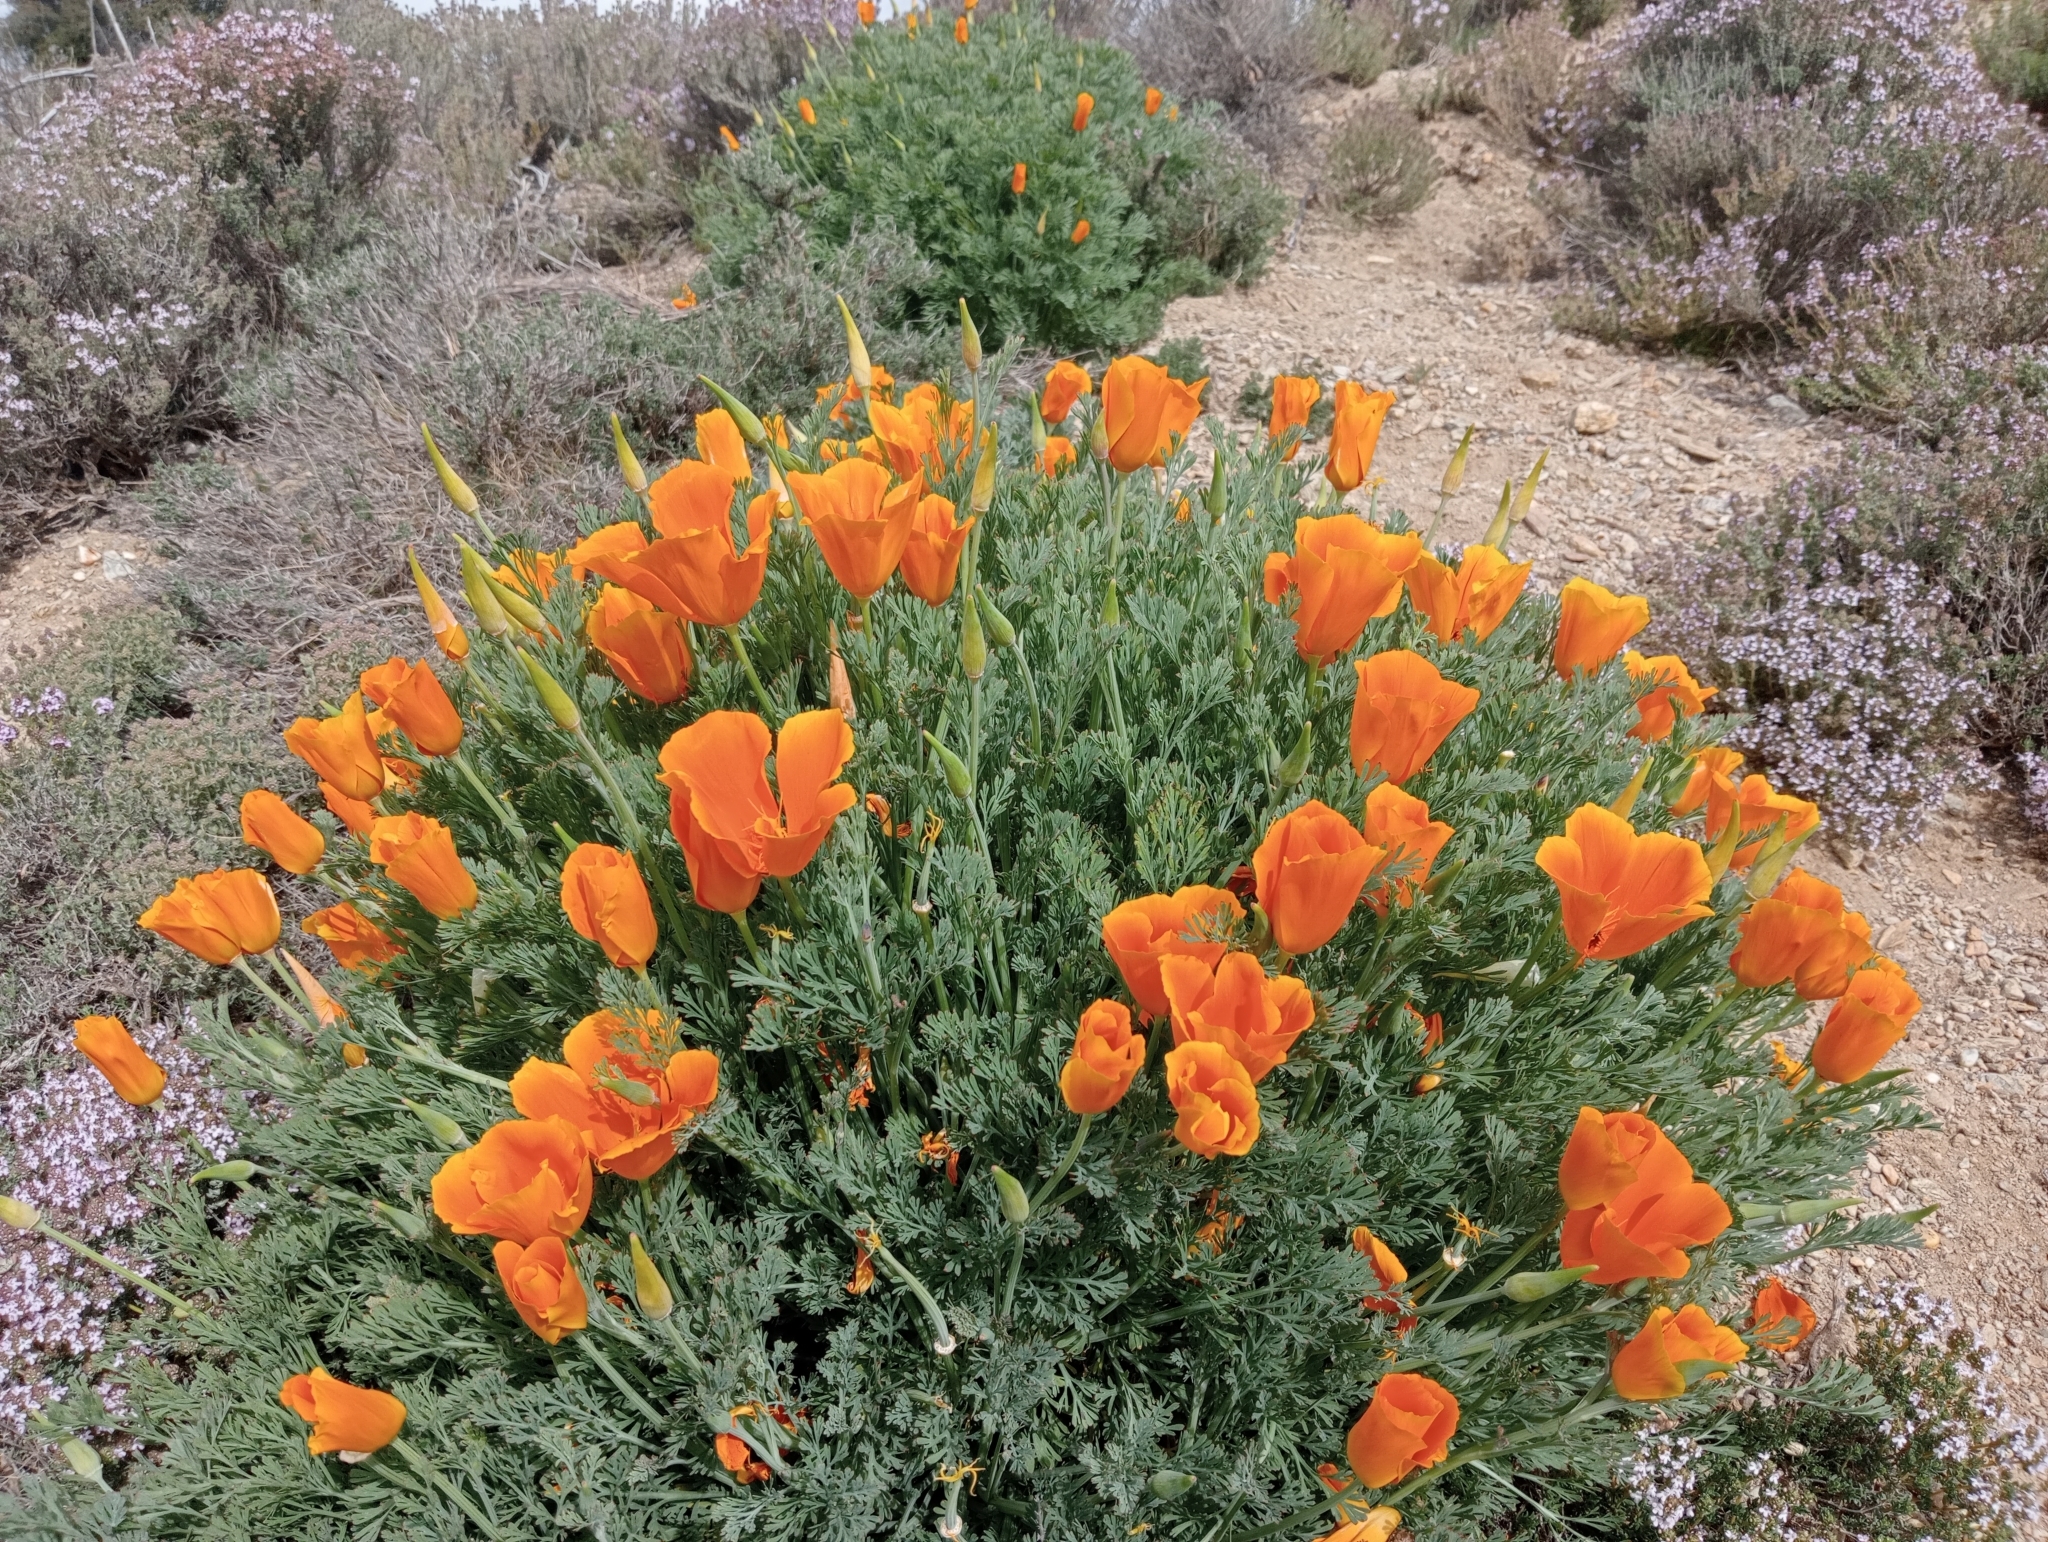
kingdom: Plantae
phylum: Tracheophyta
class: Magnoliopsida
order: Ranunculales
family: Papaveraceae
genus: Eschscholzia
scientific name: Eschscholzia californica
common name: California poppy
